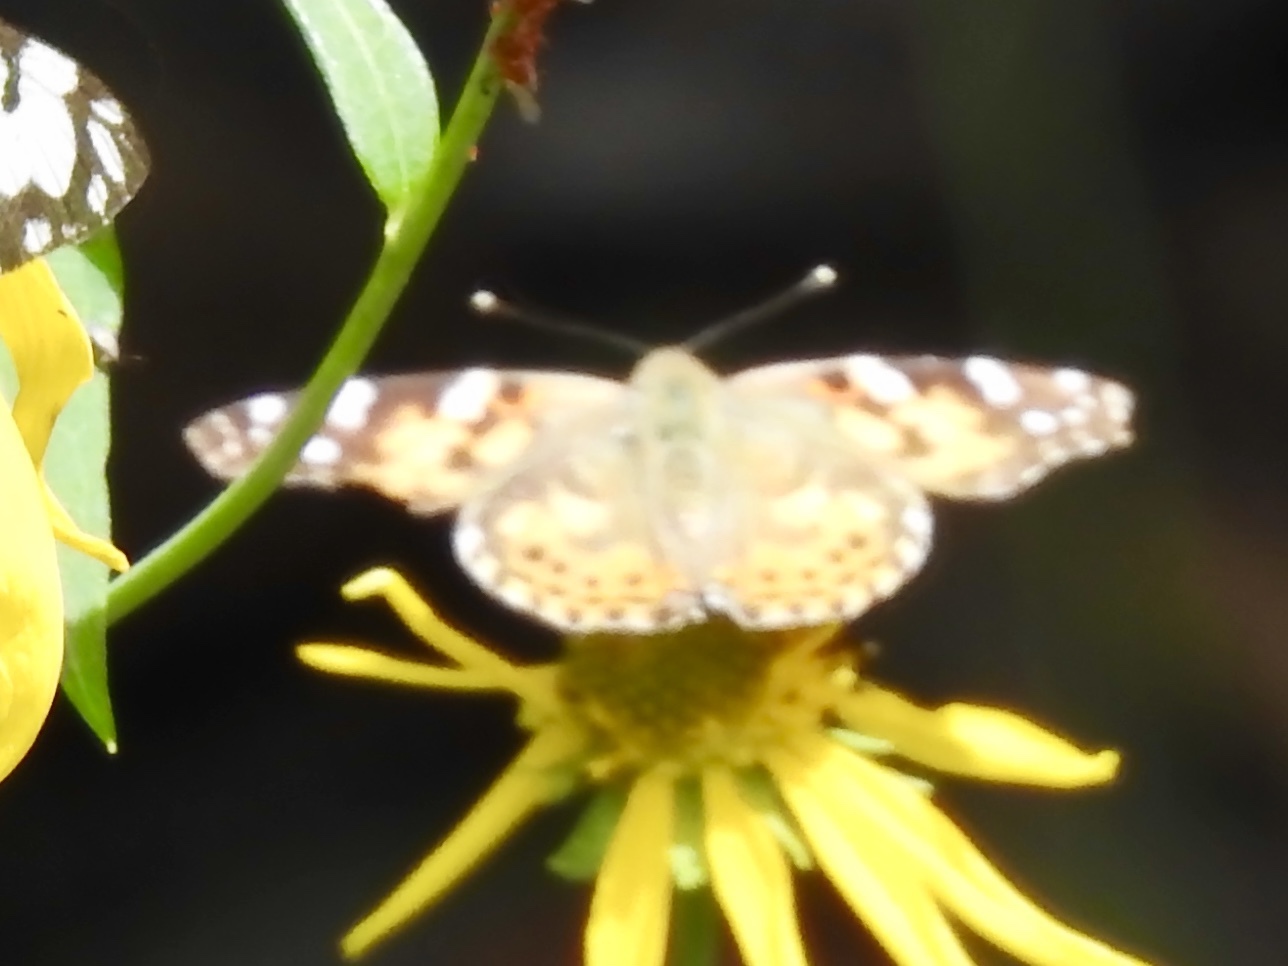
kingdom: Animalia
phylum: Arthropoda
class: Insecta
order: Lepidoptera
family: Nymphalidae
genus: Vanessa
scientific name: Vanessa cardui
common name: Painted lady
